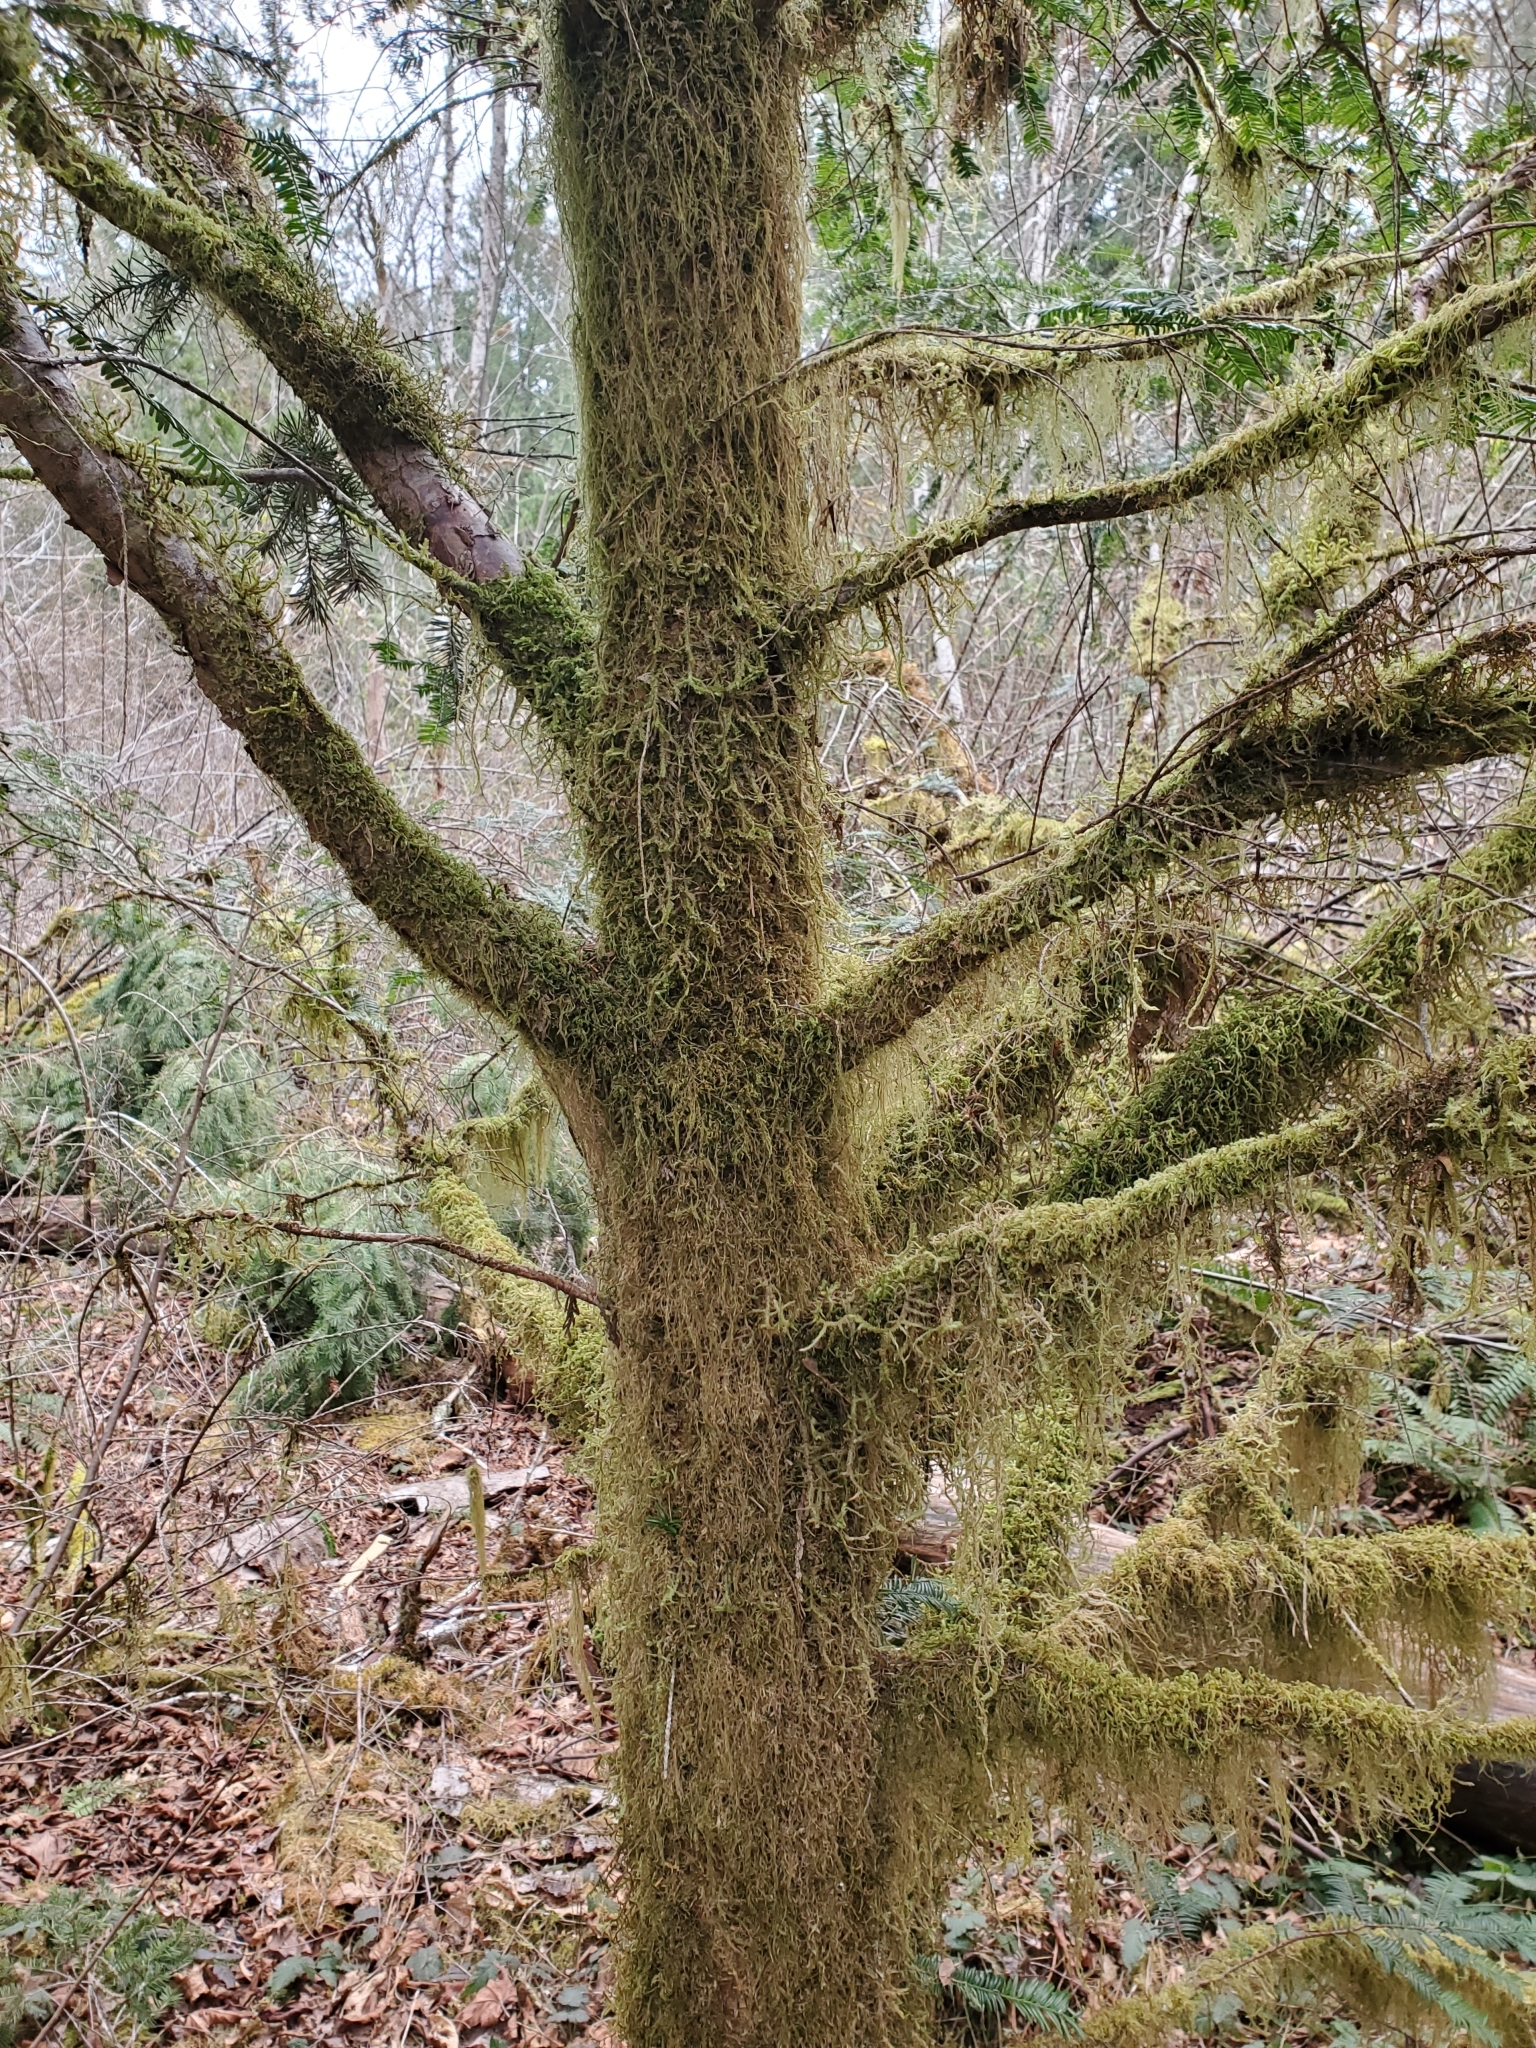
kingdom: Plantae
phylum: Tracheophyta
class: Pinopsida
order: Pinales
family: Taxaceae
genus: Taxus
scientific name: Taxus brevifolia
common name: Pacific yew
